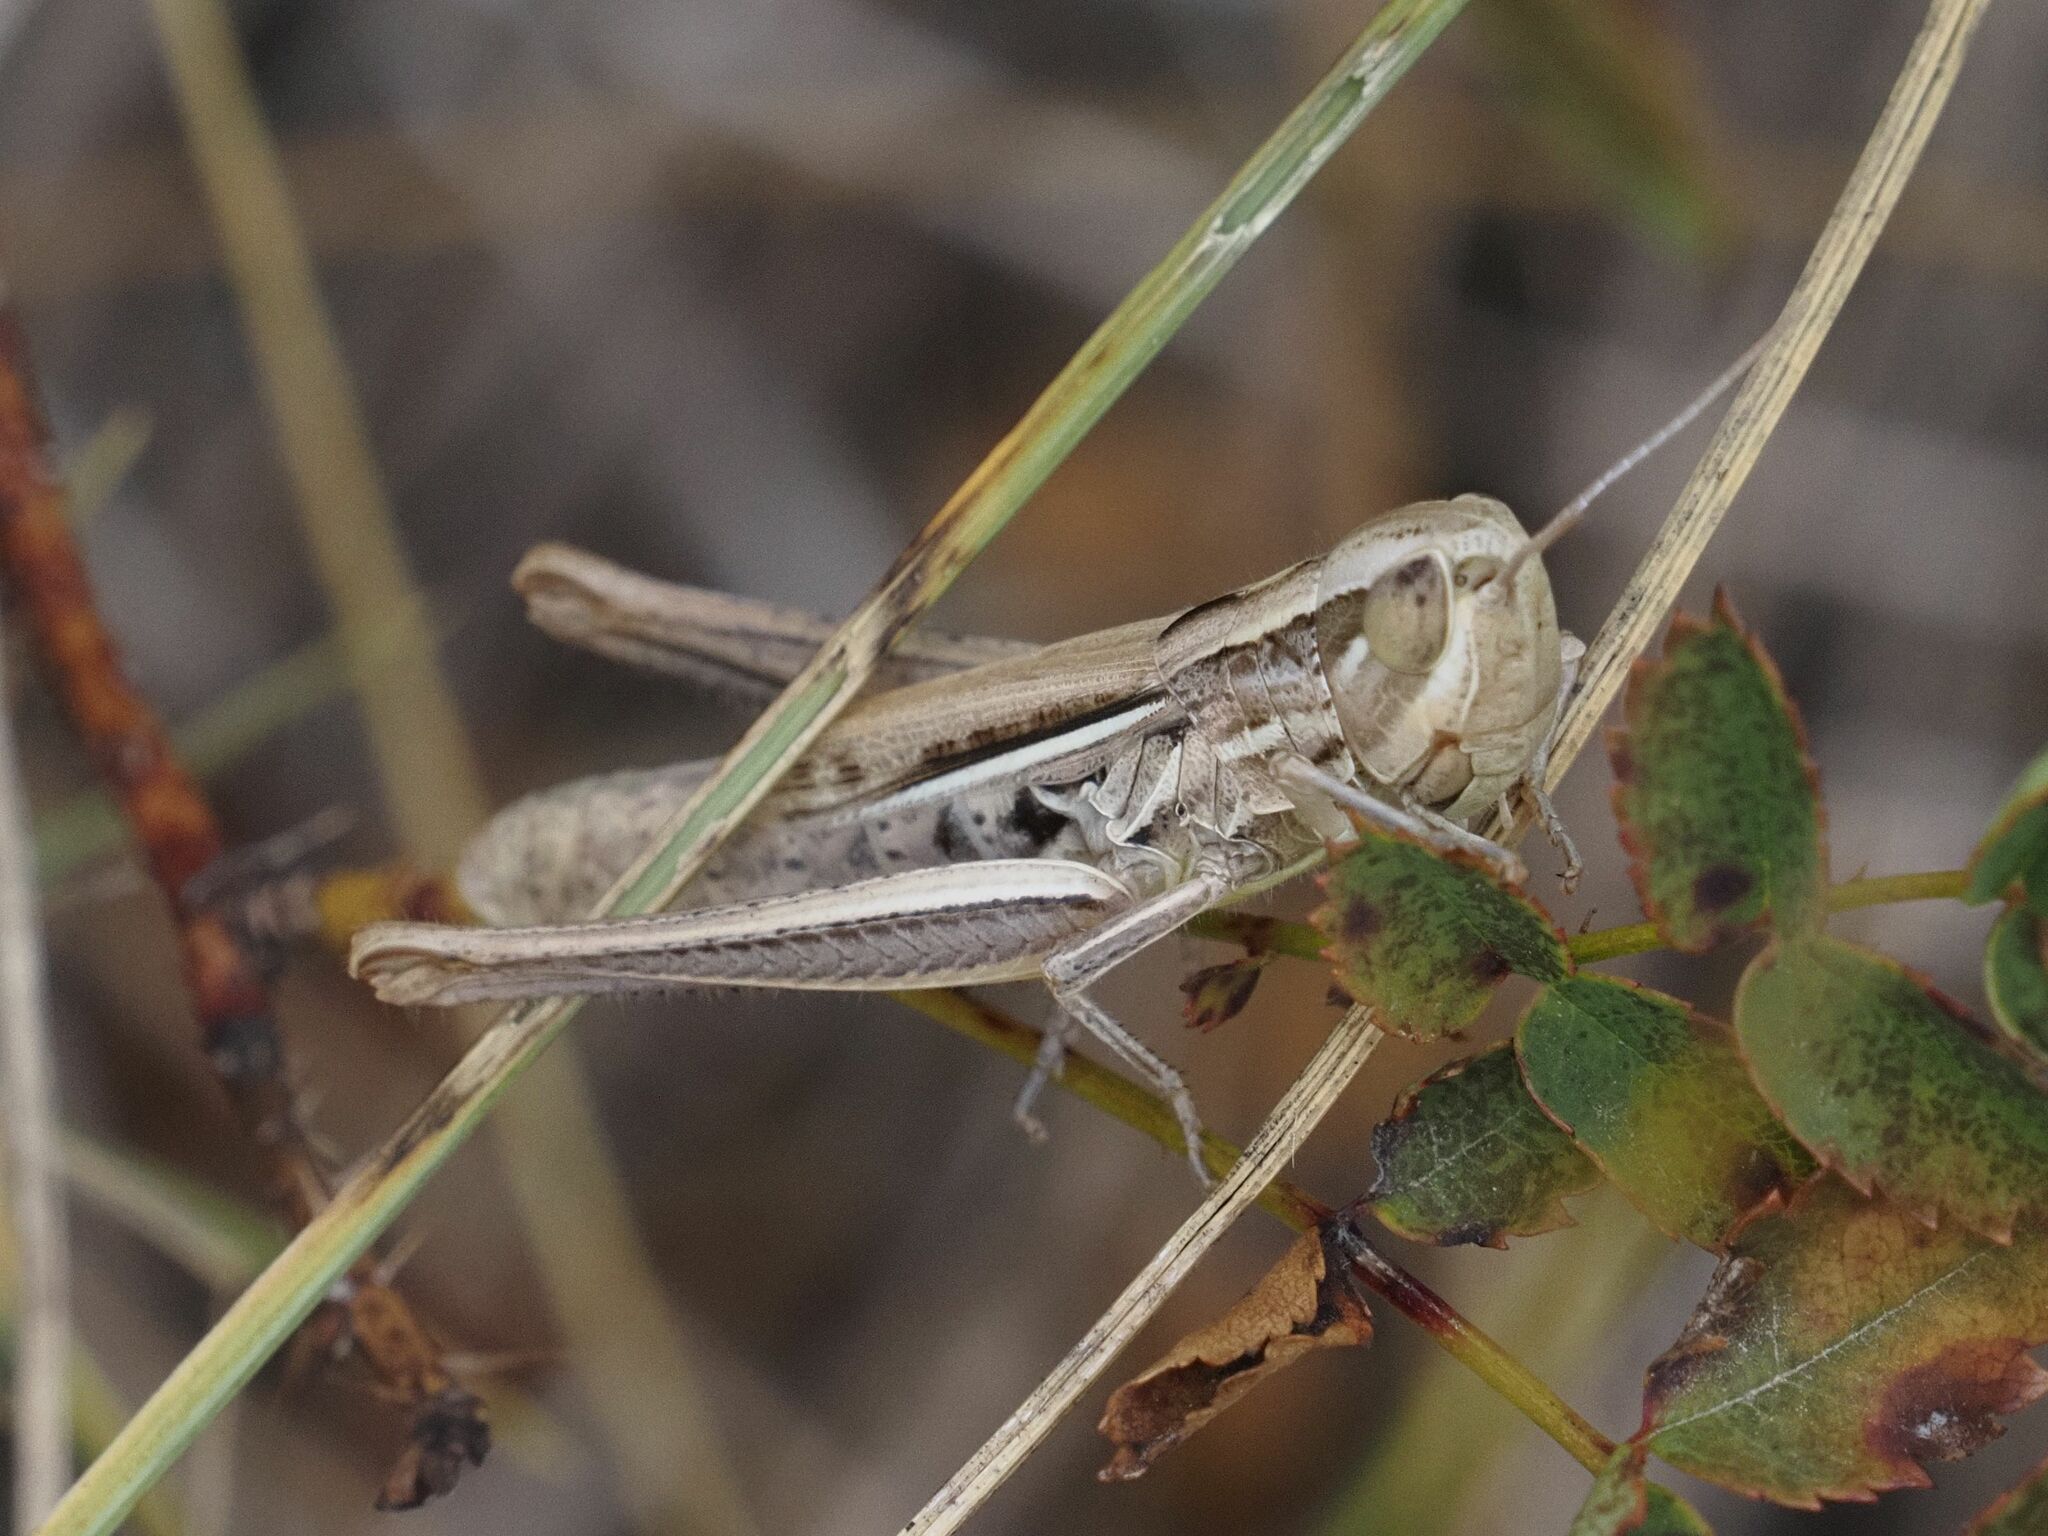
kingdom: Animalia
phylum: Arthropoda
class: Insecta
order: Orthoptera
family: Acrididae
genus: Euchorthippus
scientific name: Euchorthippus declivus
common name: Common straw grasshopper
